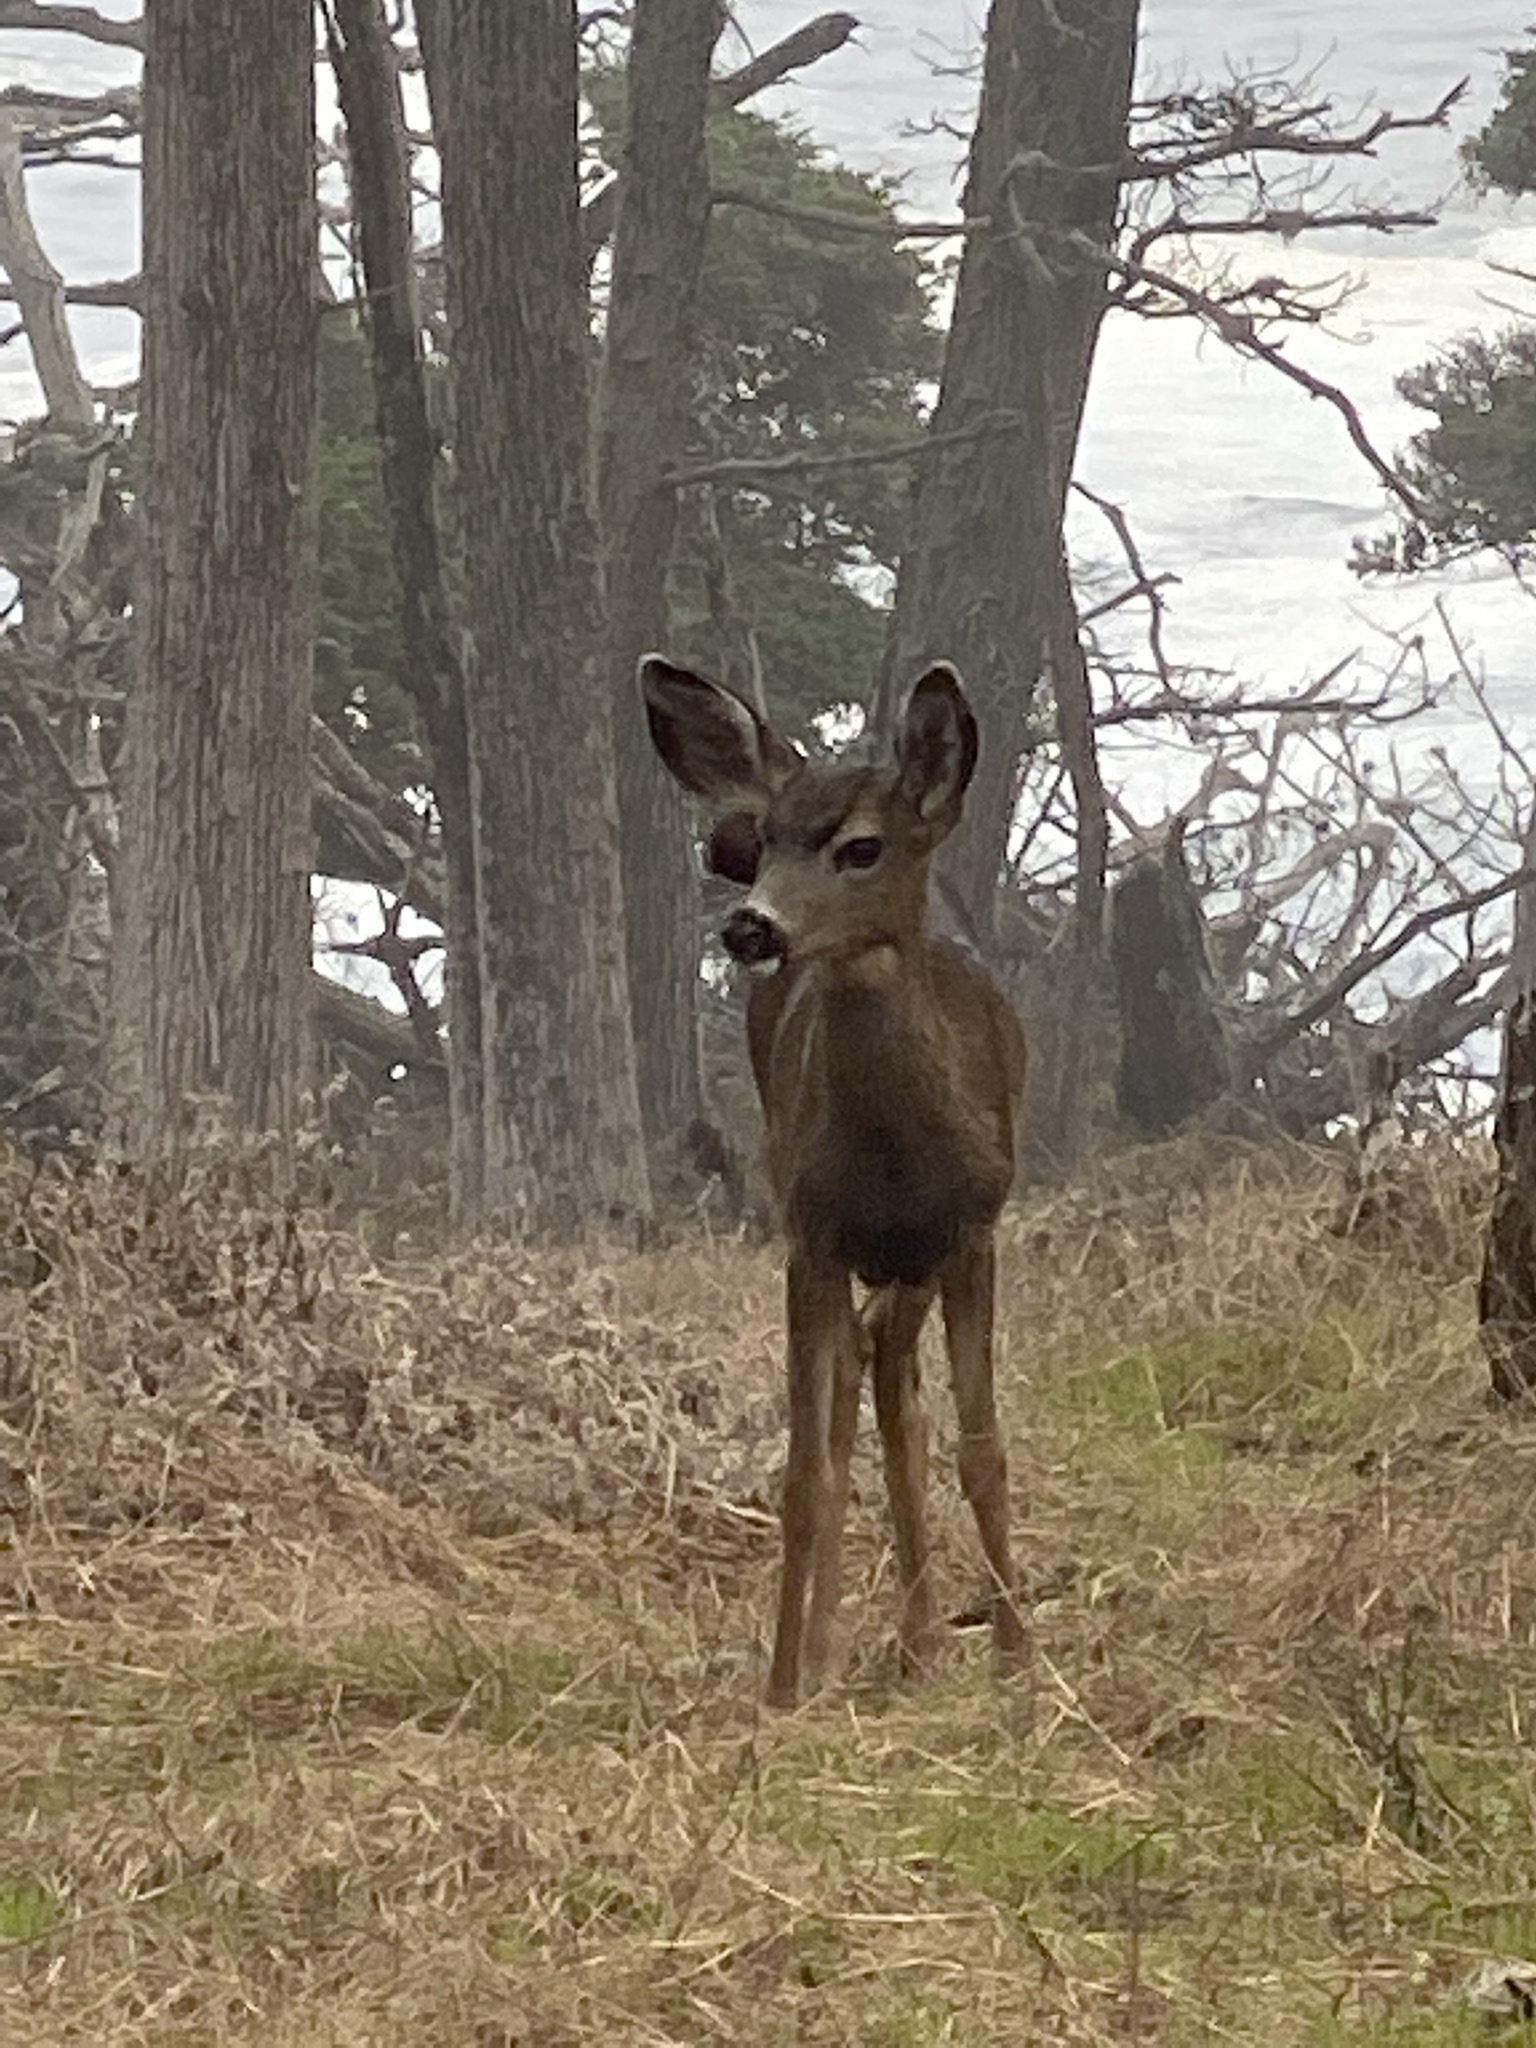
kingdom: Animalia
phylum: Chordata
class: Mammalia
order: Artiodactyla
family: Cervidae
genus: Odocoileus
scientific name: Odocoileus hemionus
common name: Mule deer
